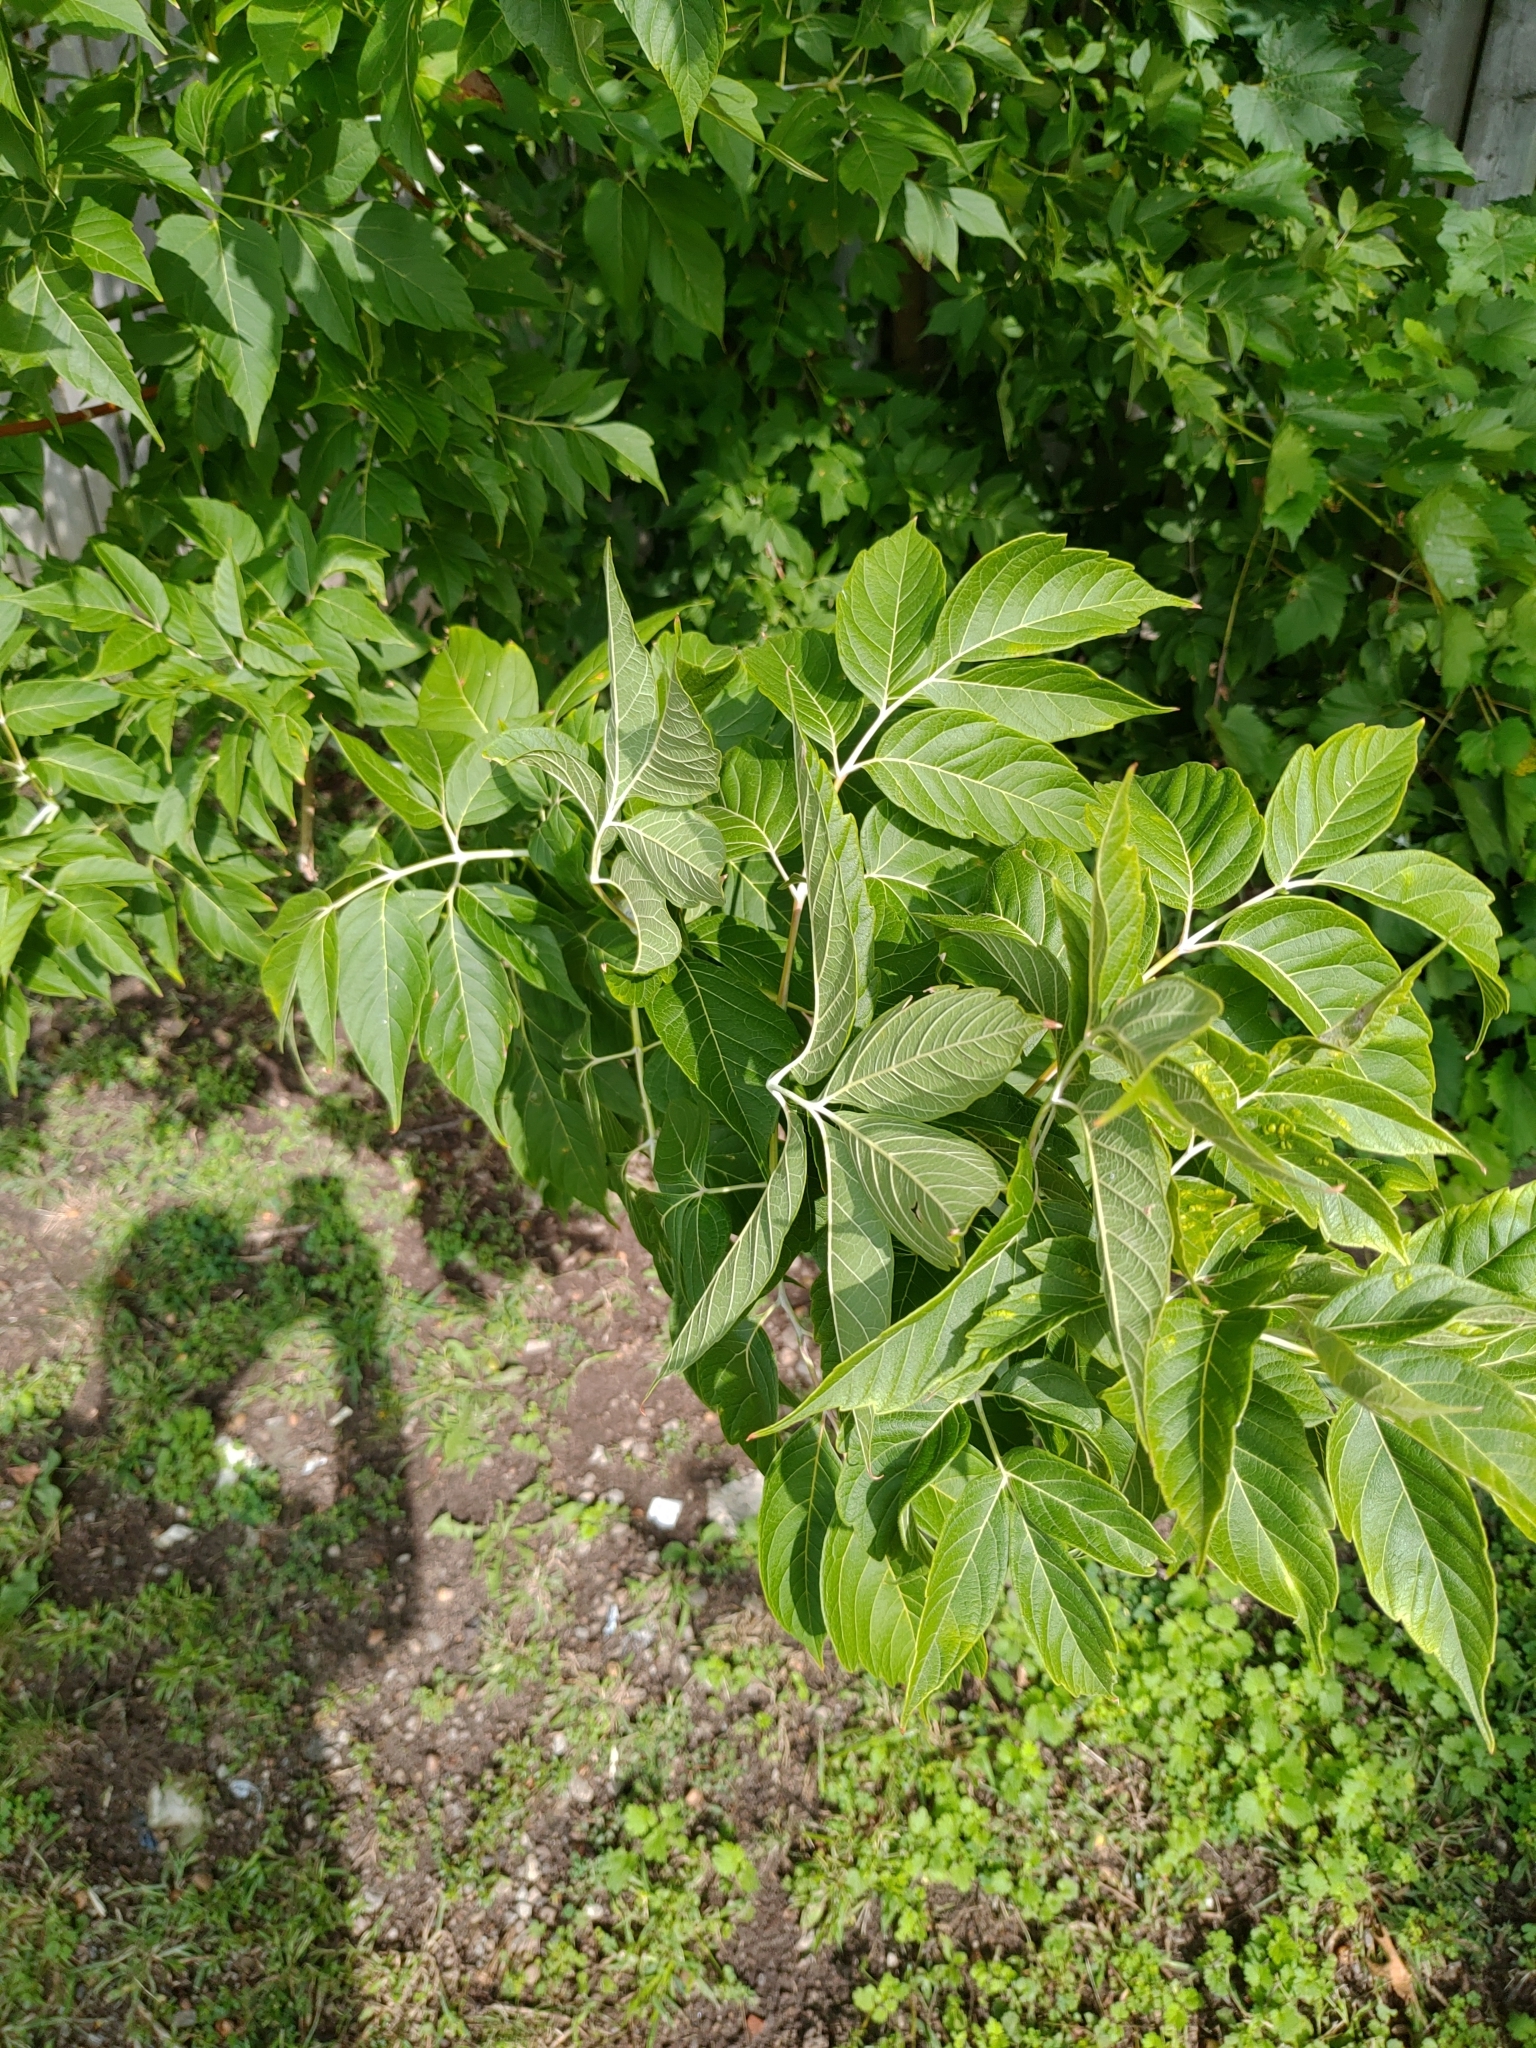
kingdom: Plantae
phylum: Tracheophyta
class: Magnoliopsida
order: Sapindales
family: Sapindaceae
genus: Acer
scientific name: Acer negundo
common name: Ashleaf maple
